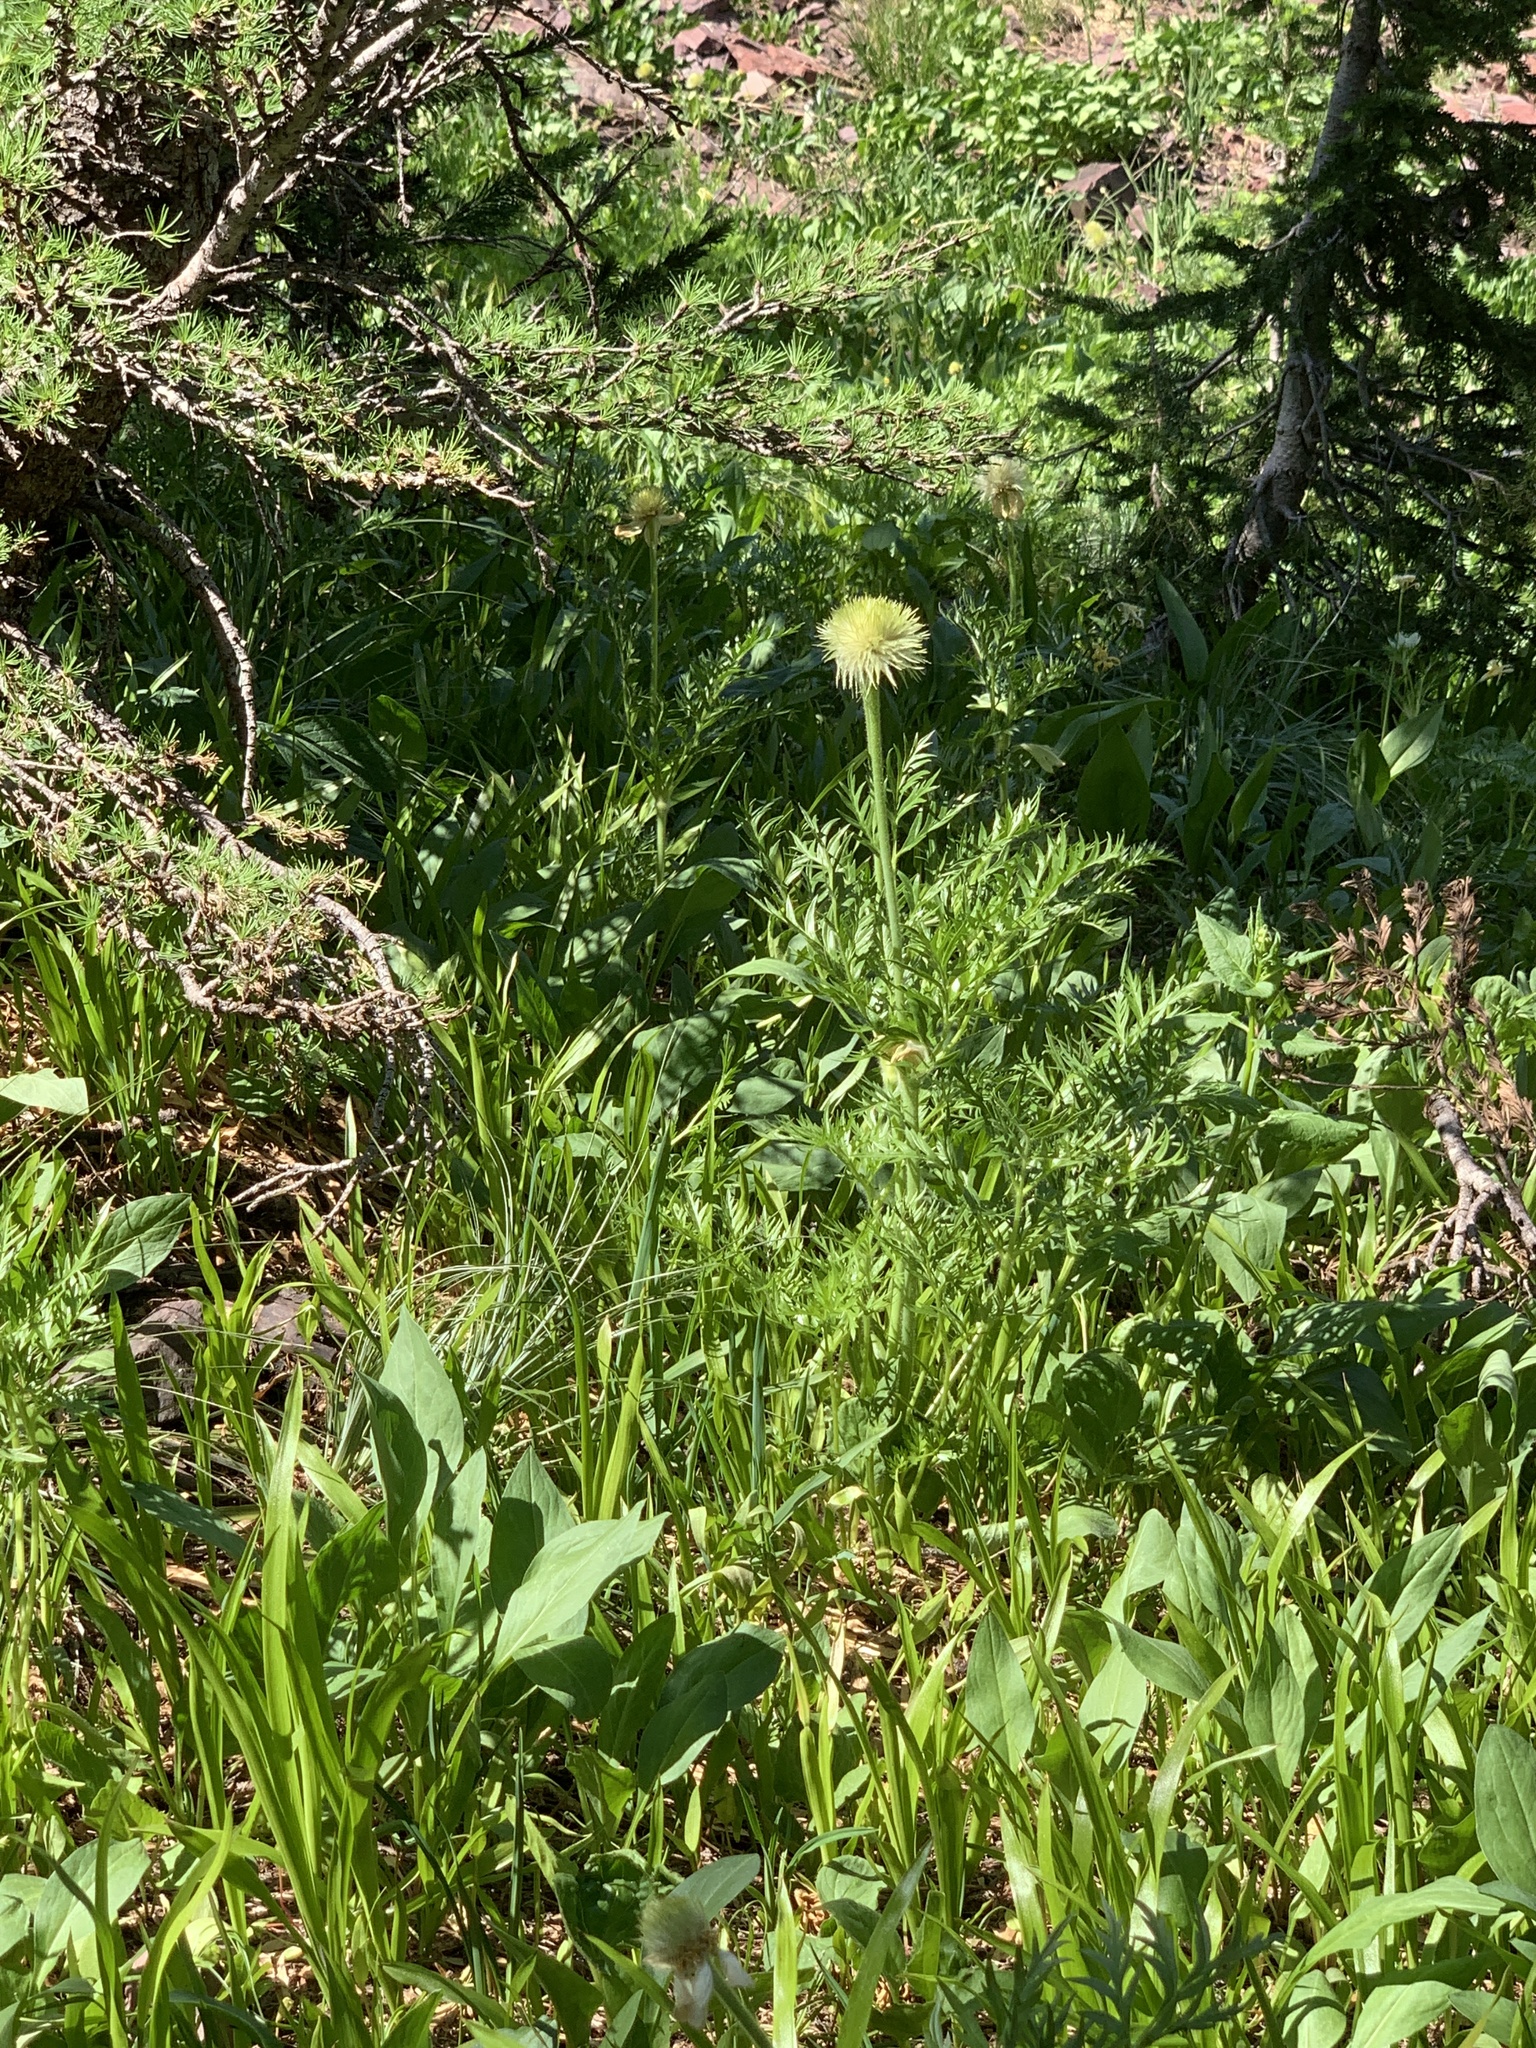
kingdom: Plantae
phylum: Tracheophyta
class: Magnoliopsida
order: Ranunculales
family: Ranunculaceae
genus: Pulsatilla
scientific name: Pulsatilla occidentalis
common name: Mountain pasqueflower
